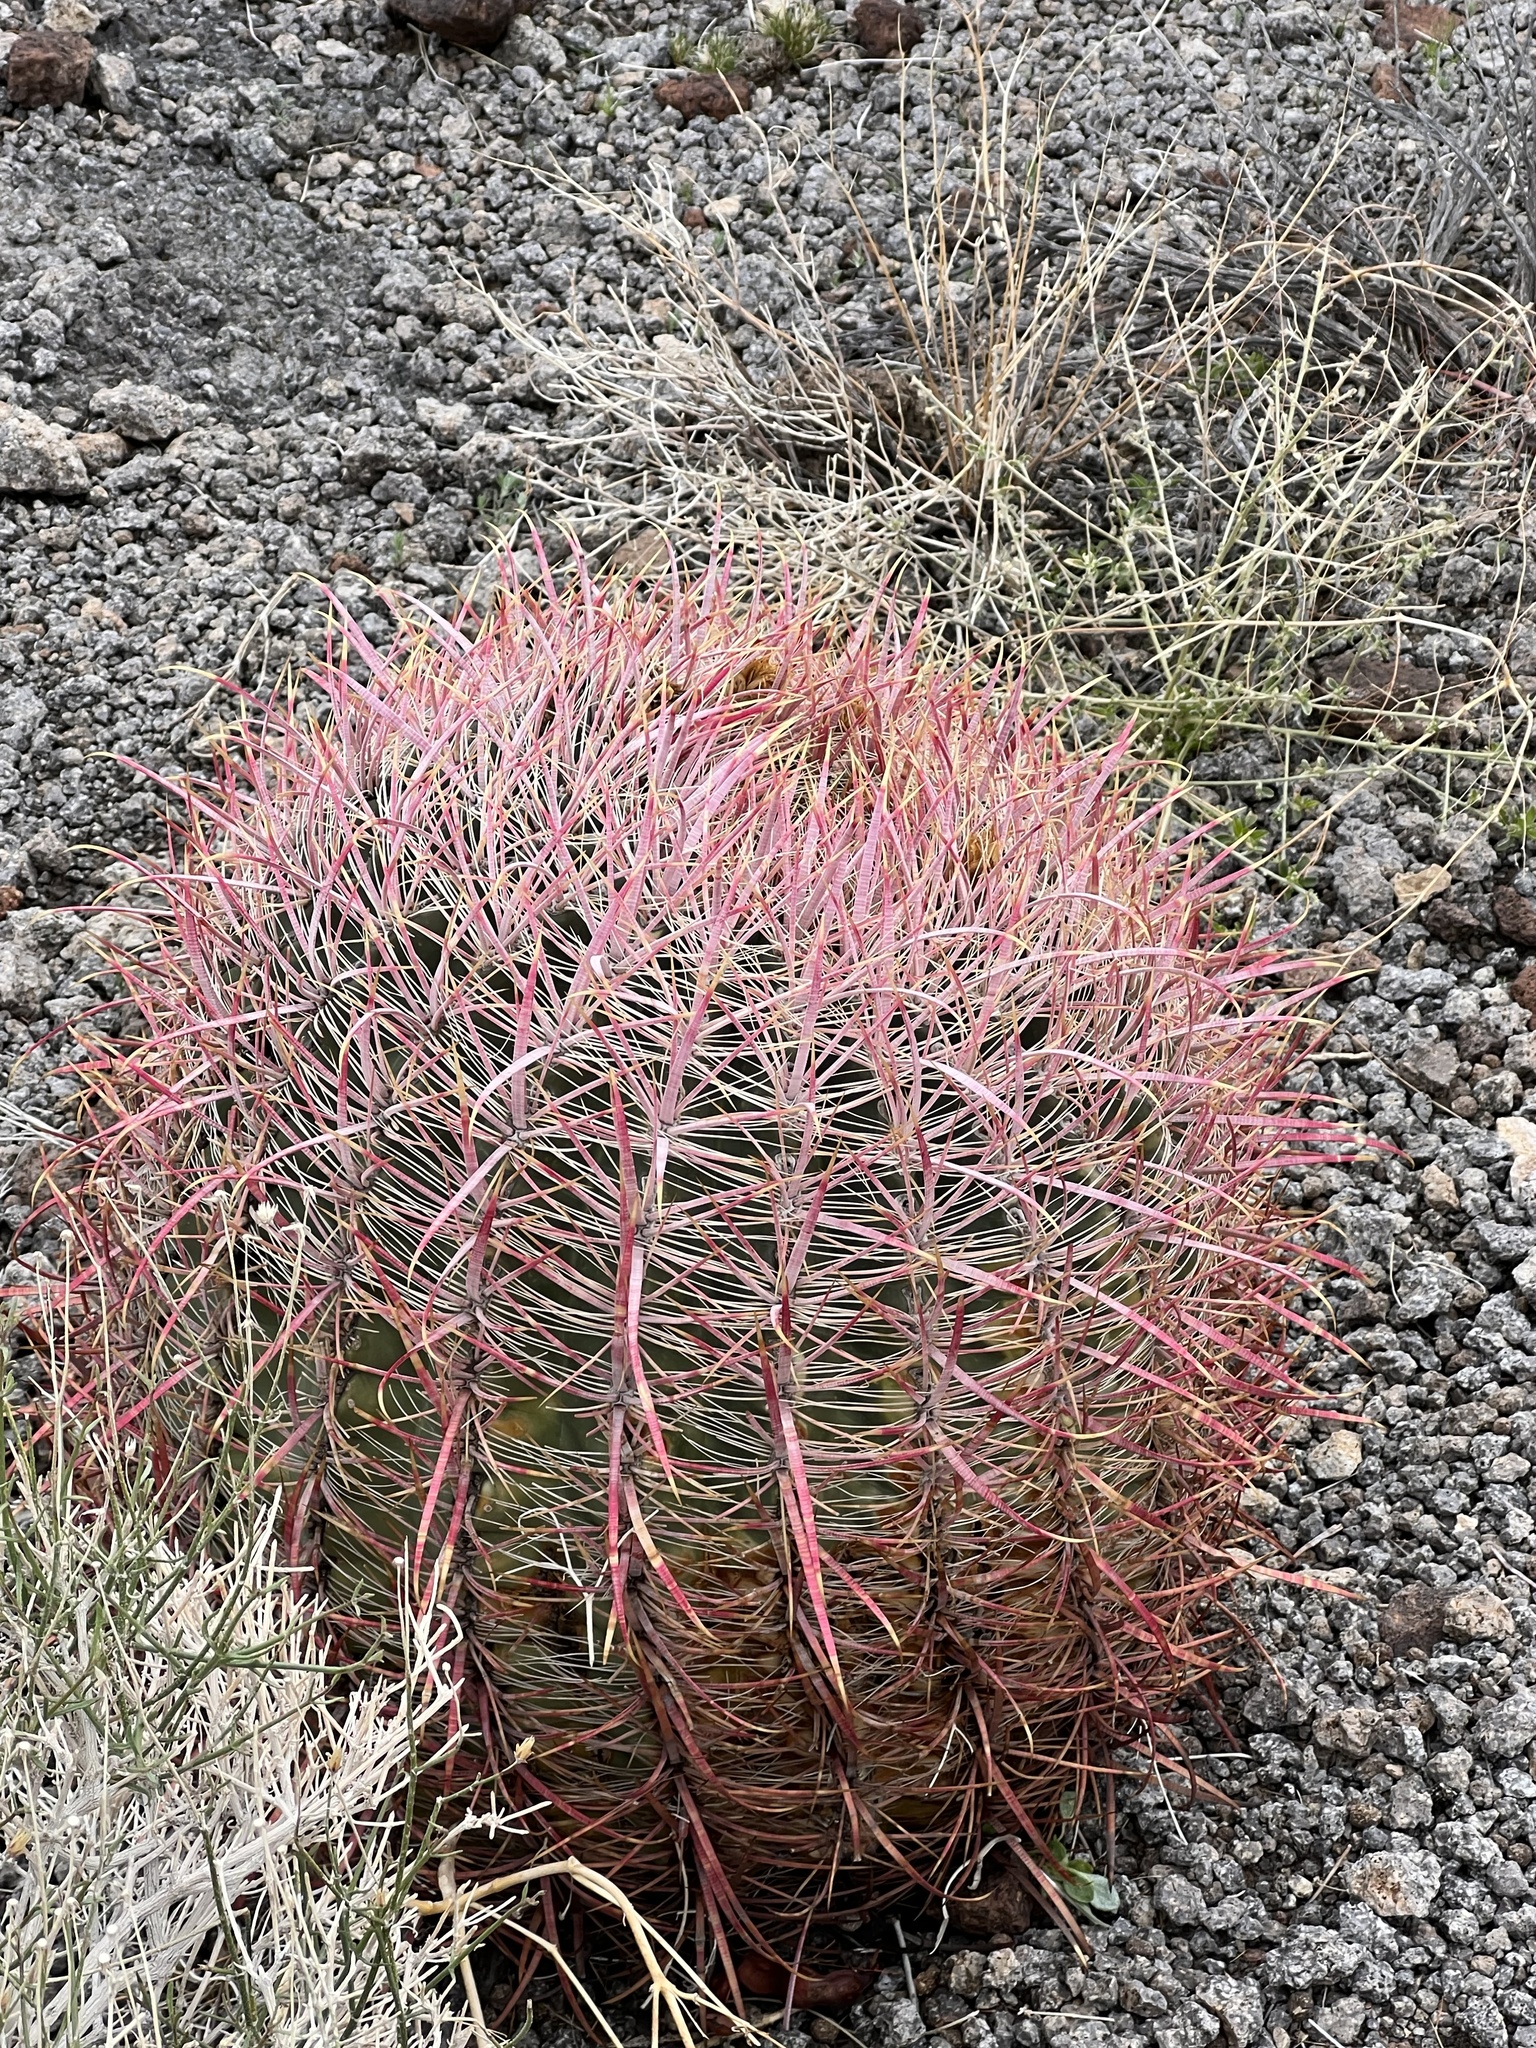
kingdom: Plantae
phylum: Tracheophyta
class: Magnoliopsida
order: Caryophyllales
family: Cactaceae
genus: Ferocactus
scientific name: Ferocactus cylindraceus
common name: California barrel cactus
